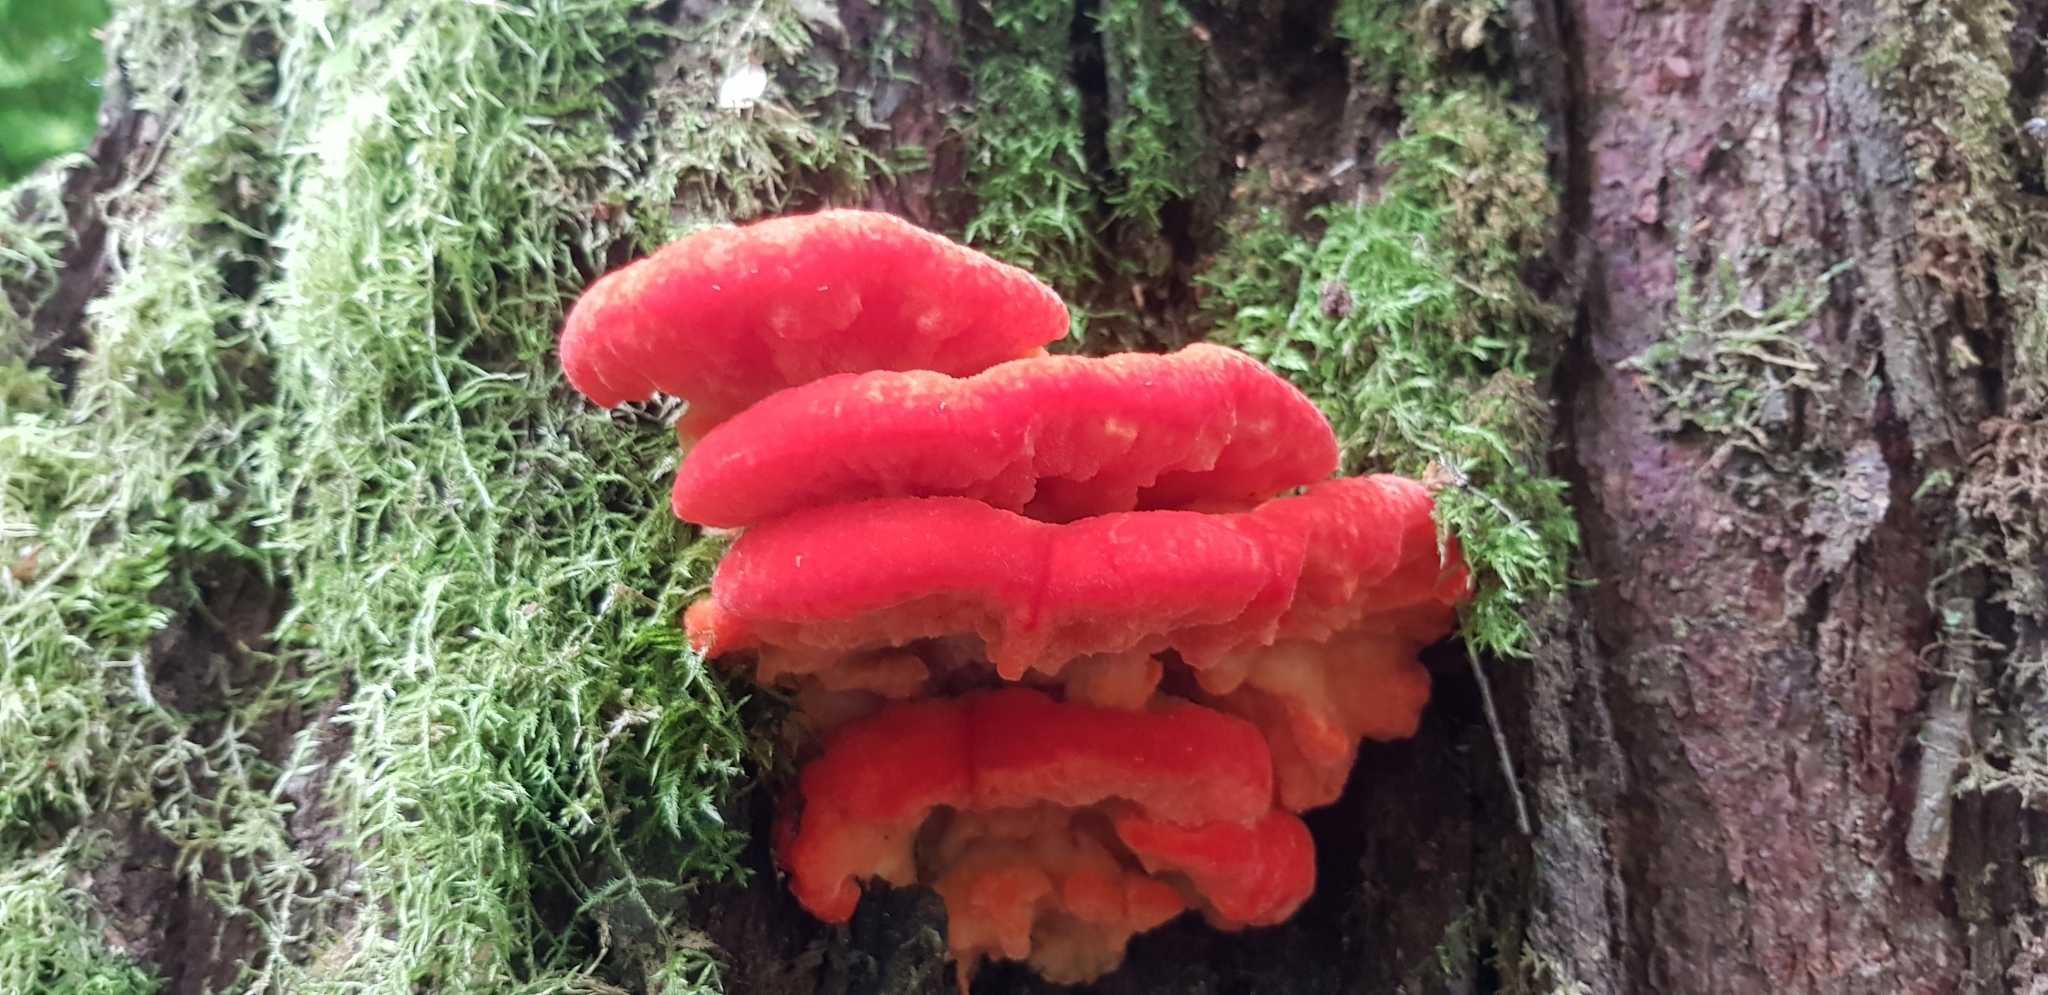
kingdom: Fungi
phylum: Basidiomycota
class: Agaricomycetes
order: Polyporales
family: Incrustoporiaceae
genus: Tyromyces
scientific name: Tyromyces pulcherrimus
